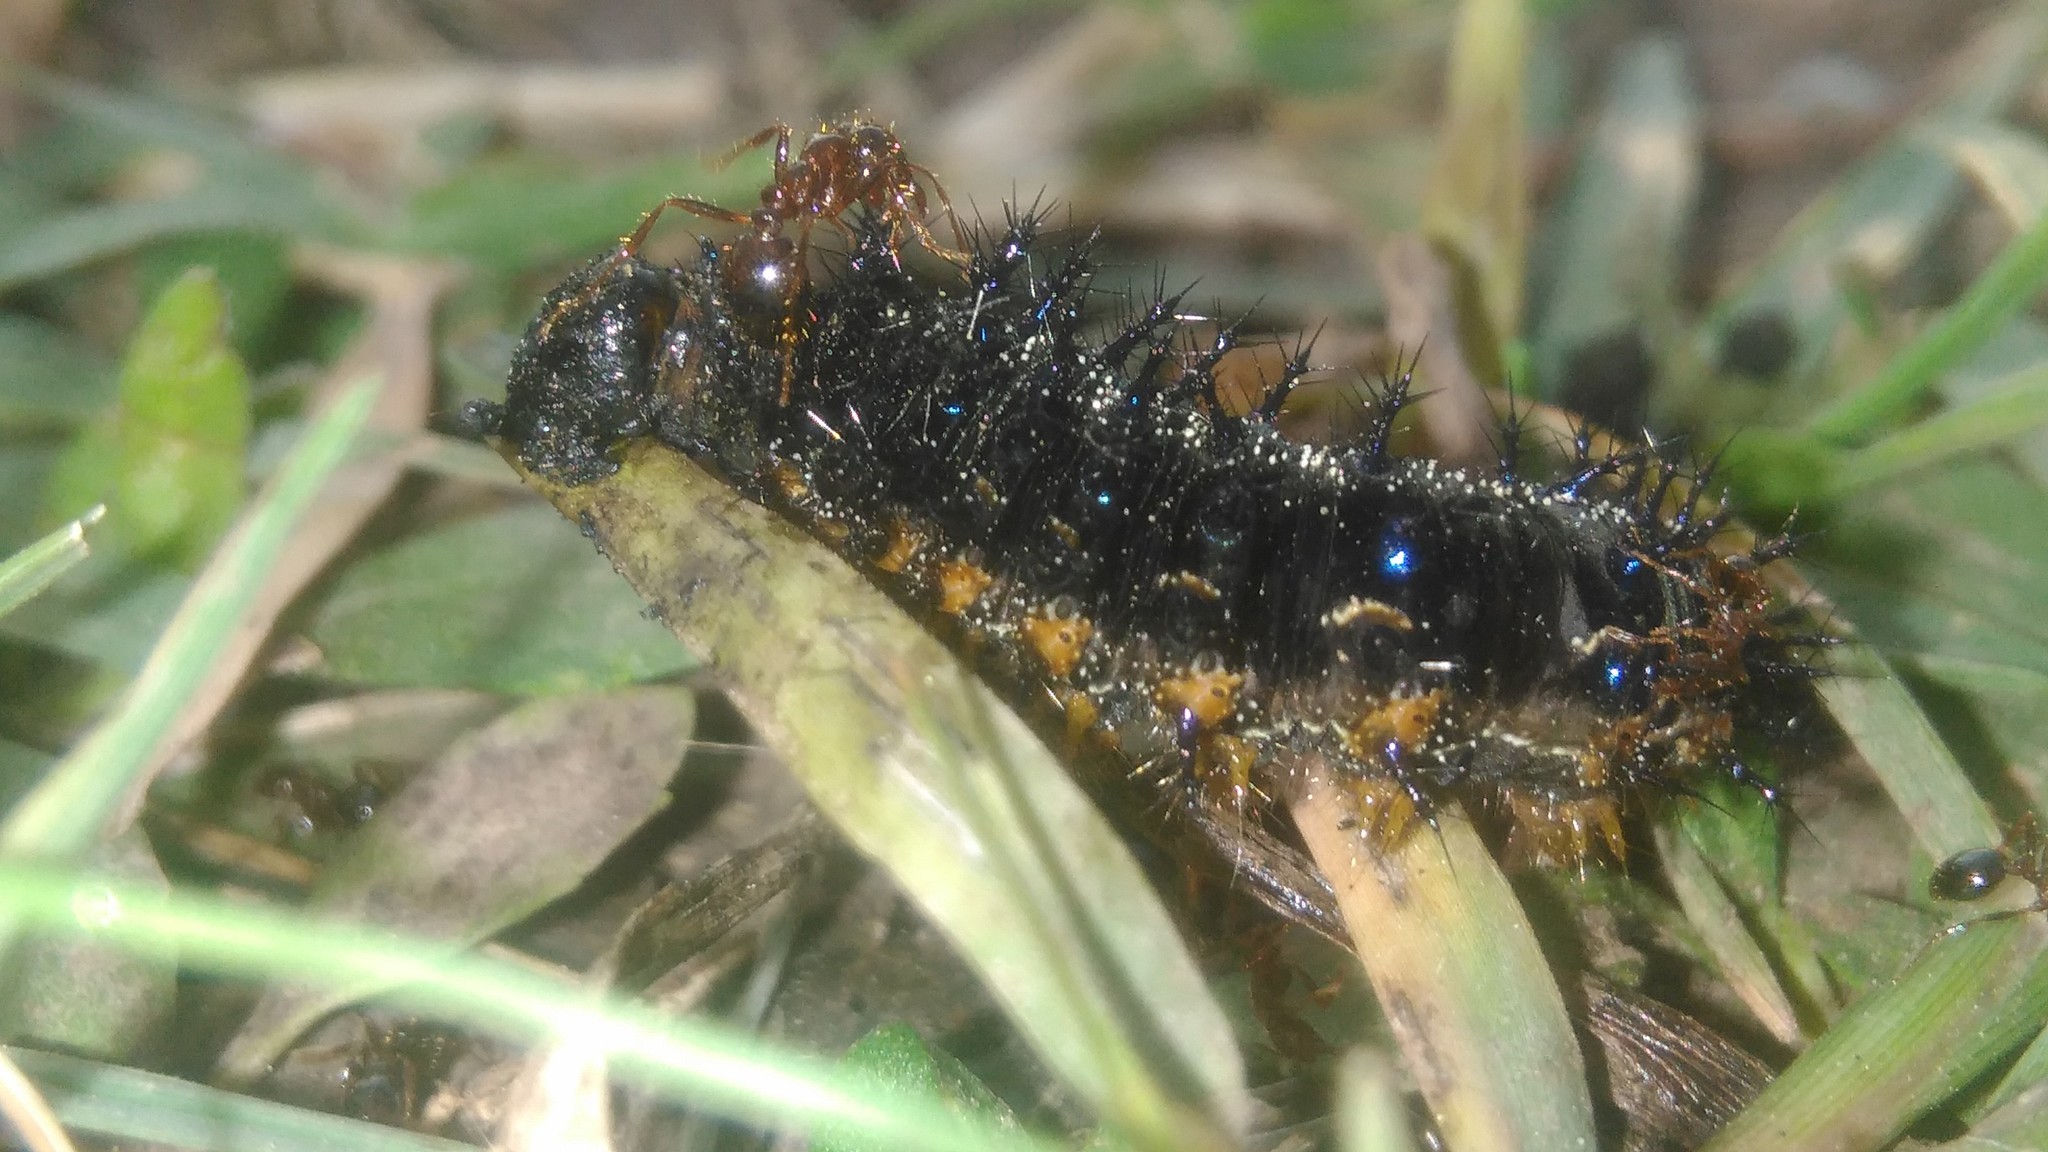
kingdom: Animalia
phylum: Arthropoda
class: Insecta
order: Lepidoptera
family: Nymphalidae
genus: Junonia
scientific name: Junonia lavinia
